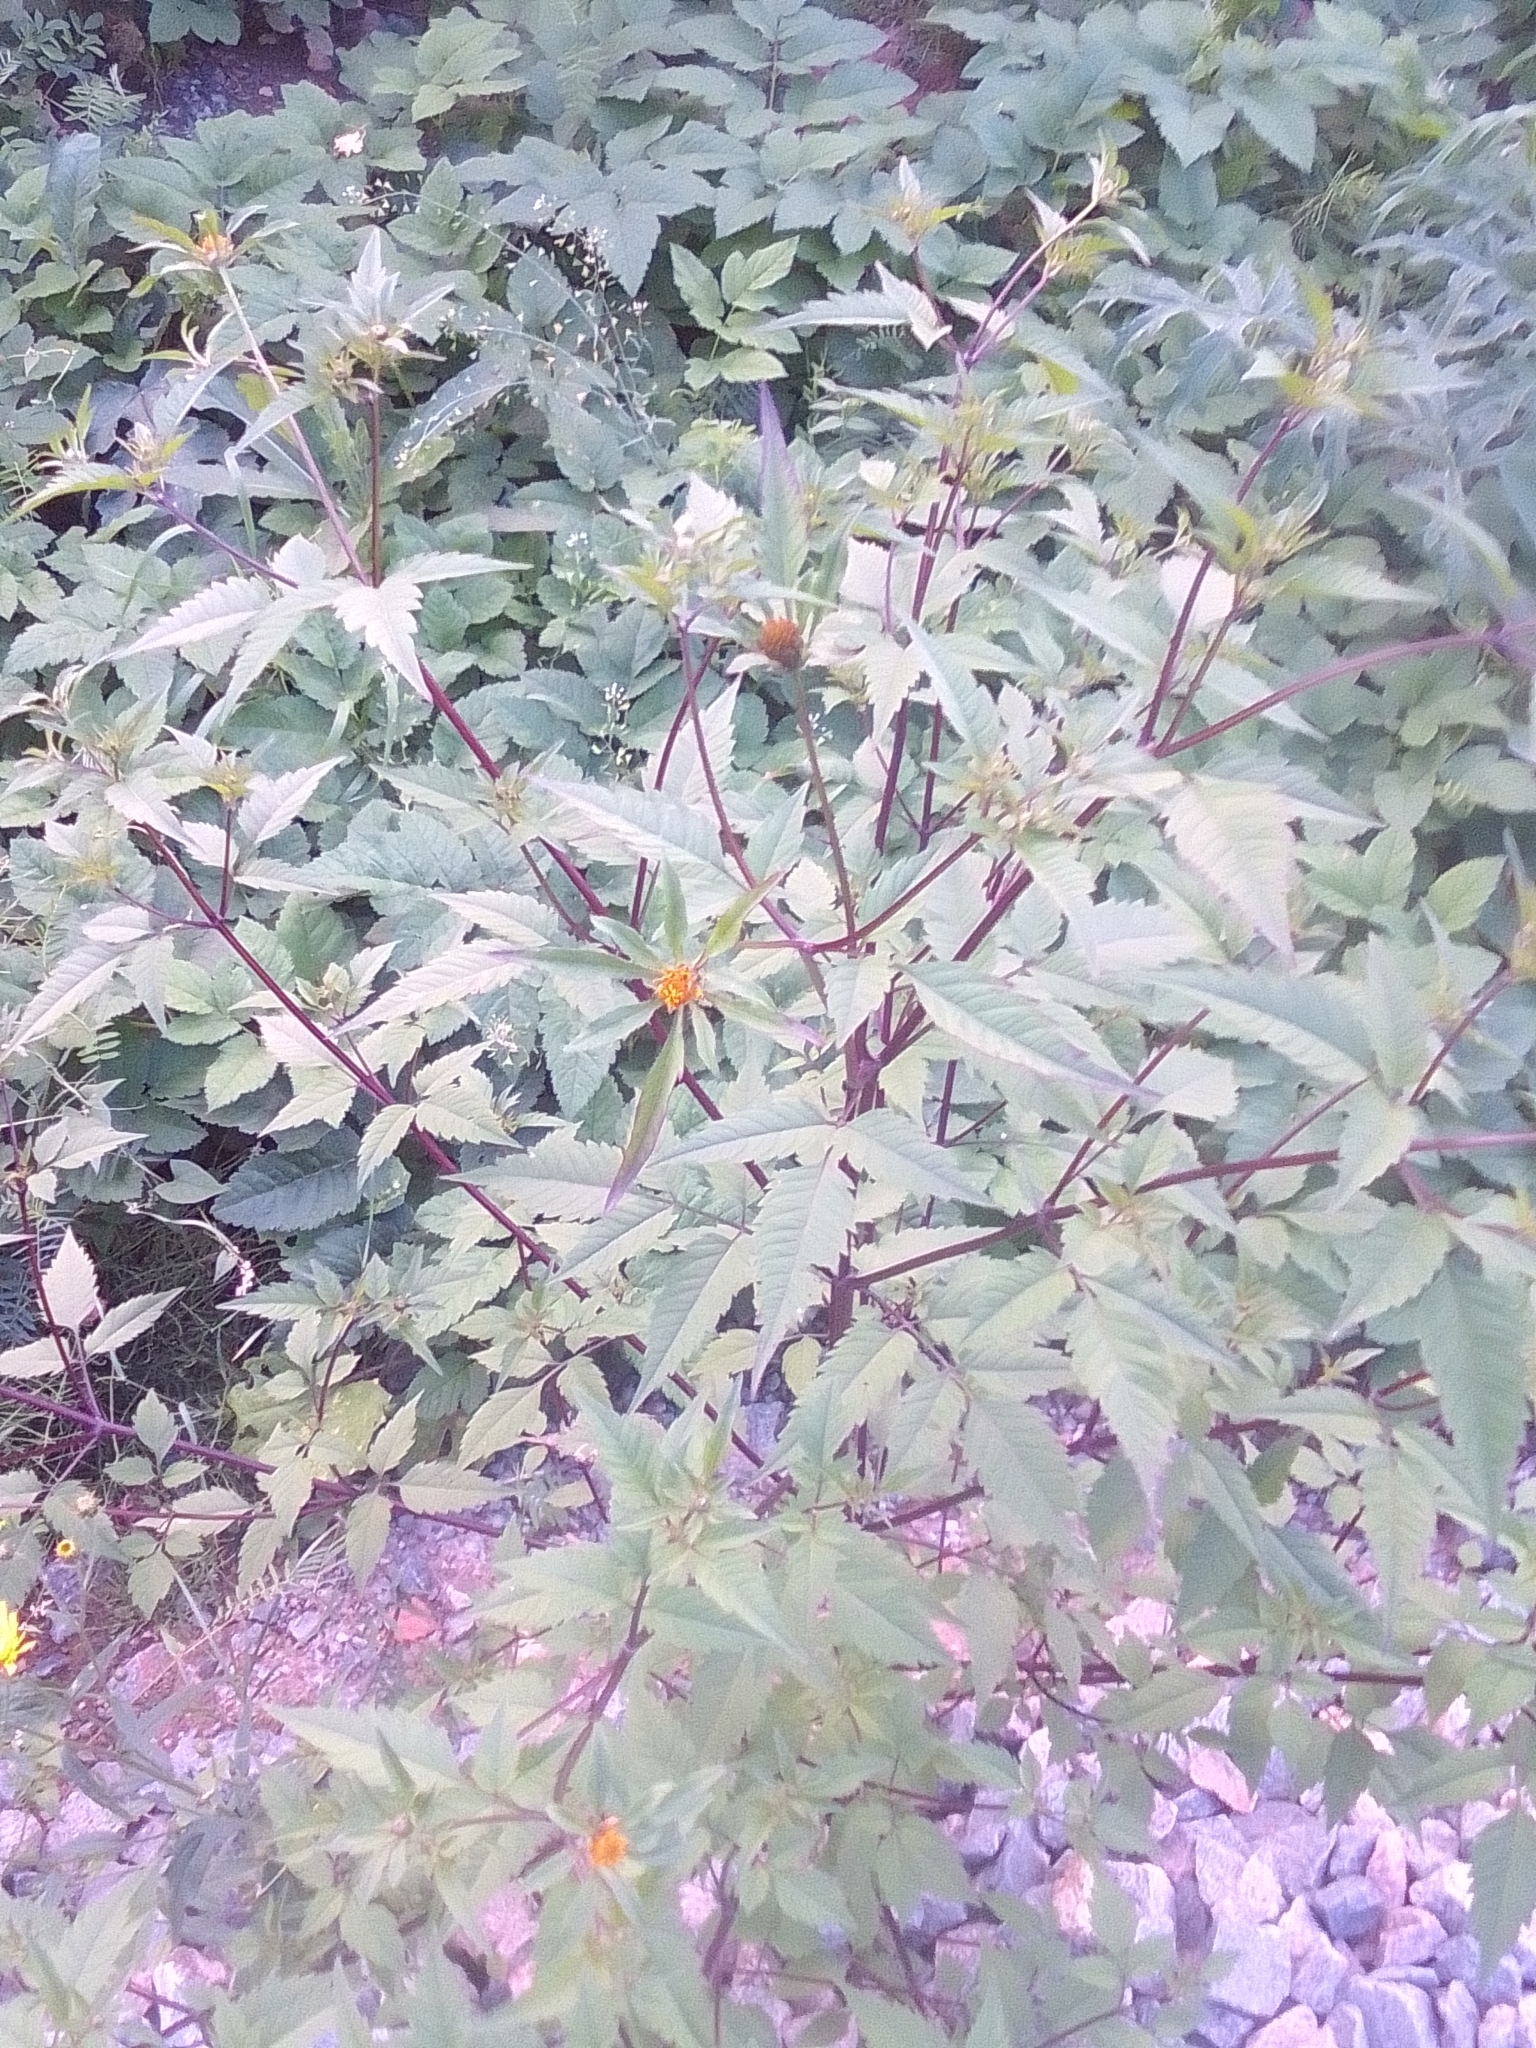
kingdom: Plantae
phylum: Tracheophyta
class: Magnoliopsida
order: Asterales
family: Asteraceae
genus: Bidens
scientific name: Bidens frondosa
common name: Beggarticks
